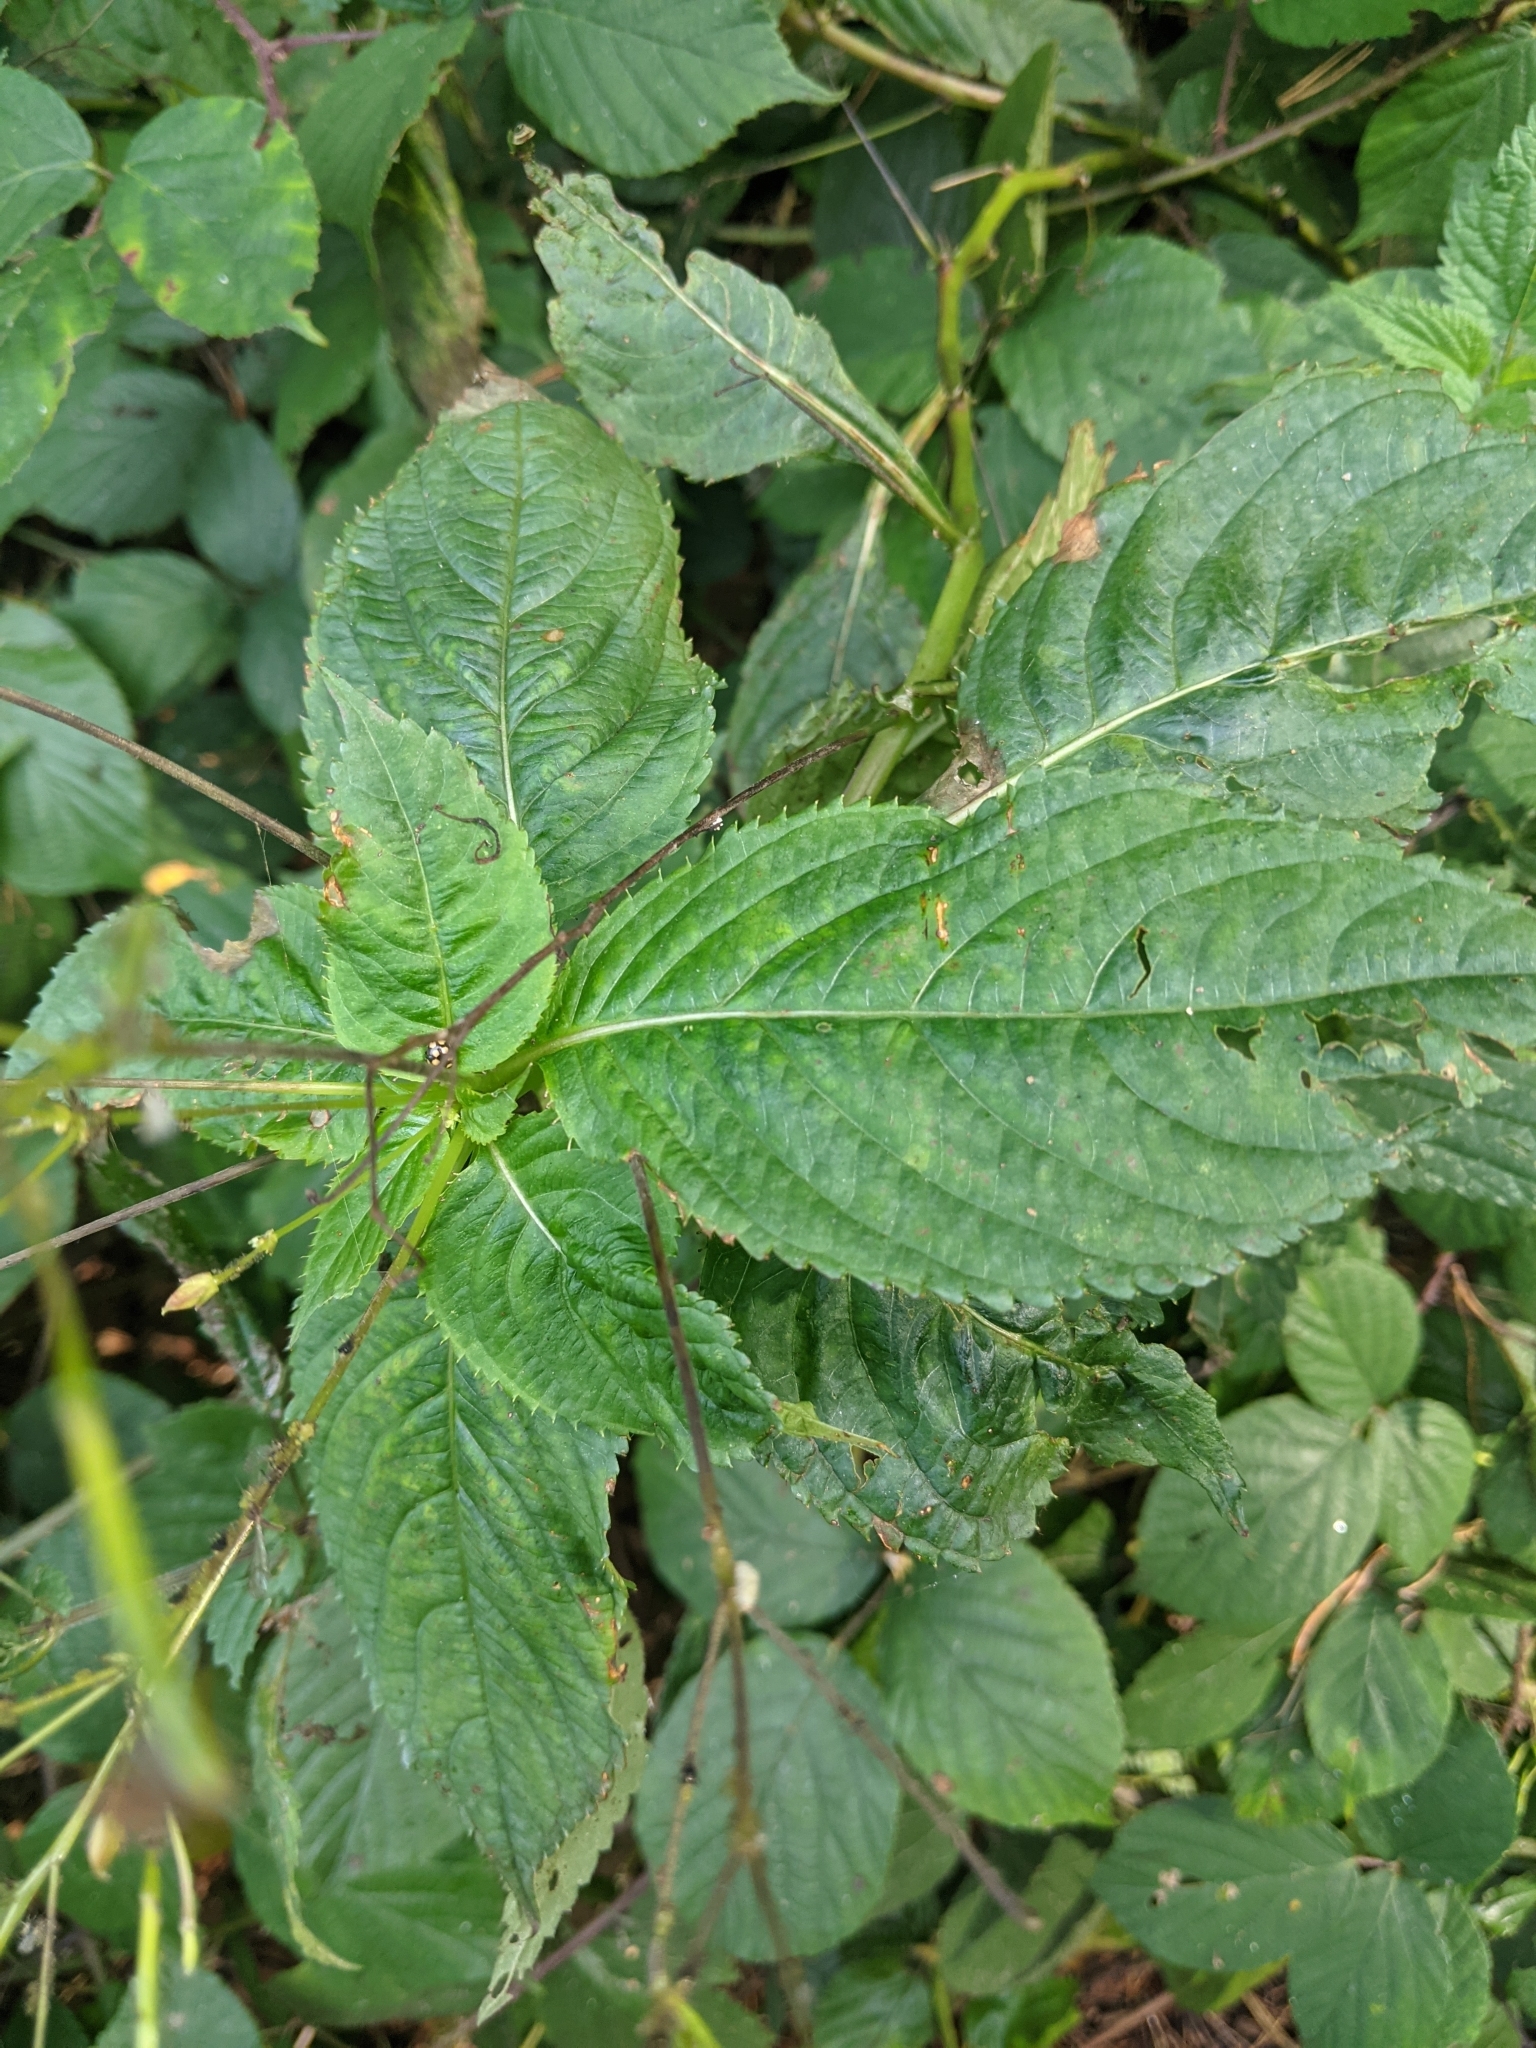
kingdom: Plantae
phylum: Tracheophyta
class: Magnoliopsida
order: Ericales
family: Balsaminaceae
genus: Impatiens
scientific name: Impatiens parviflora
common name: Small balsam
